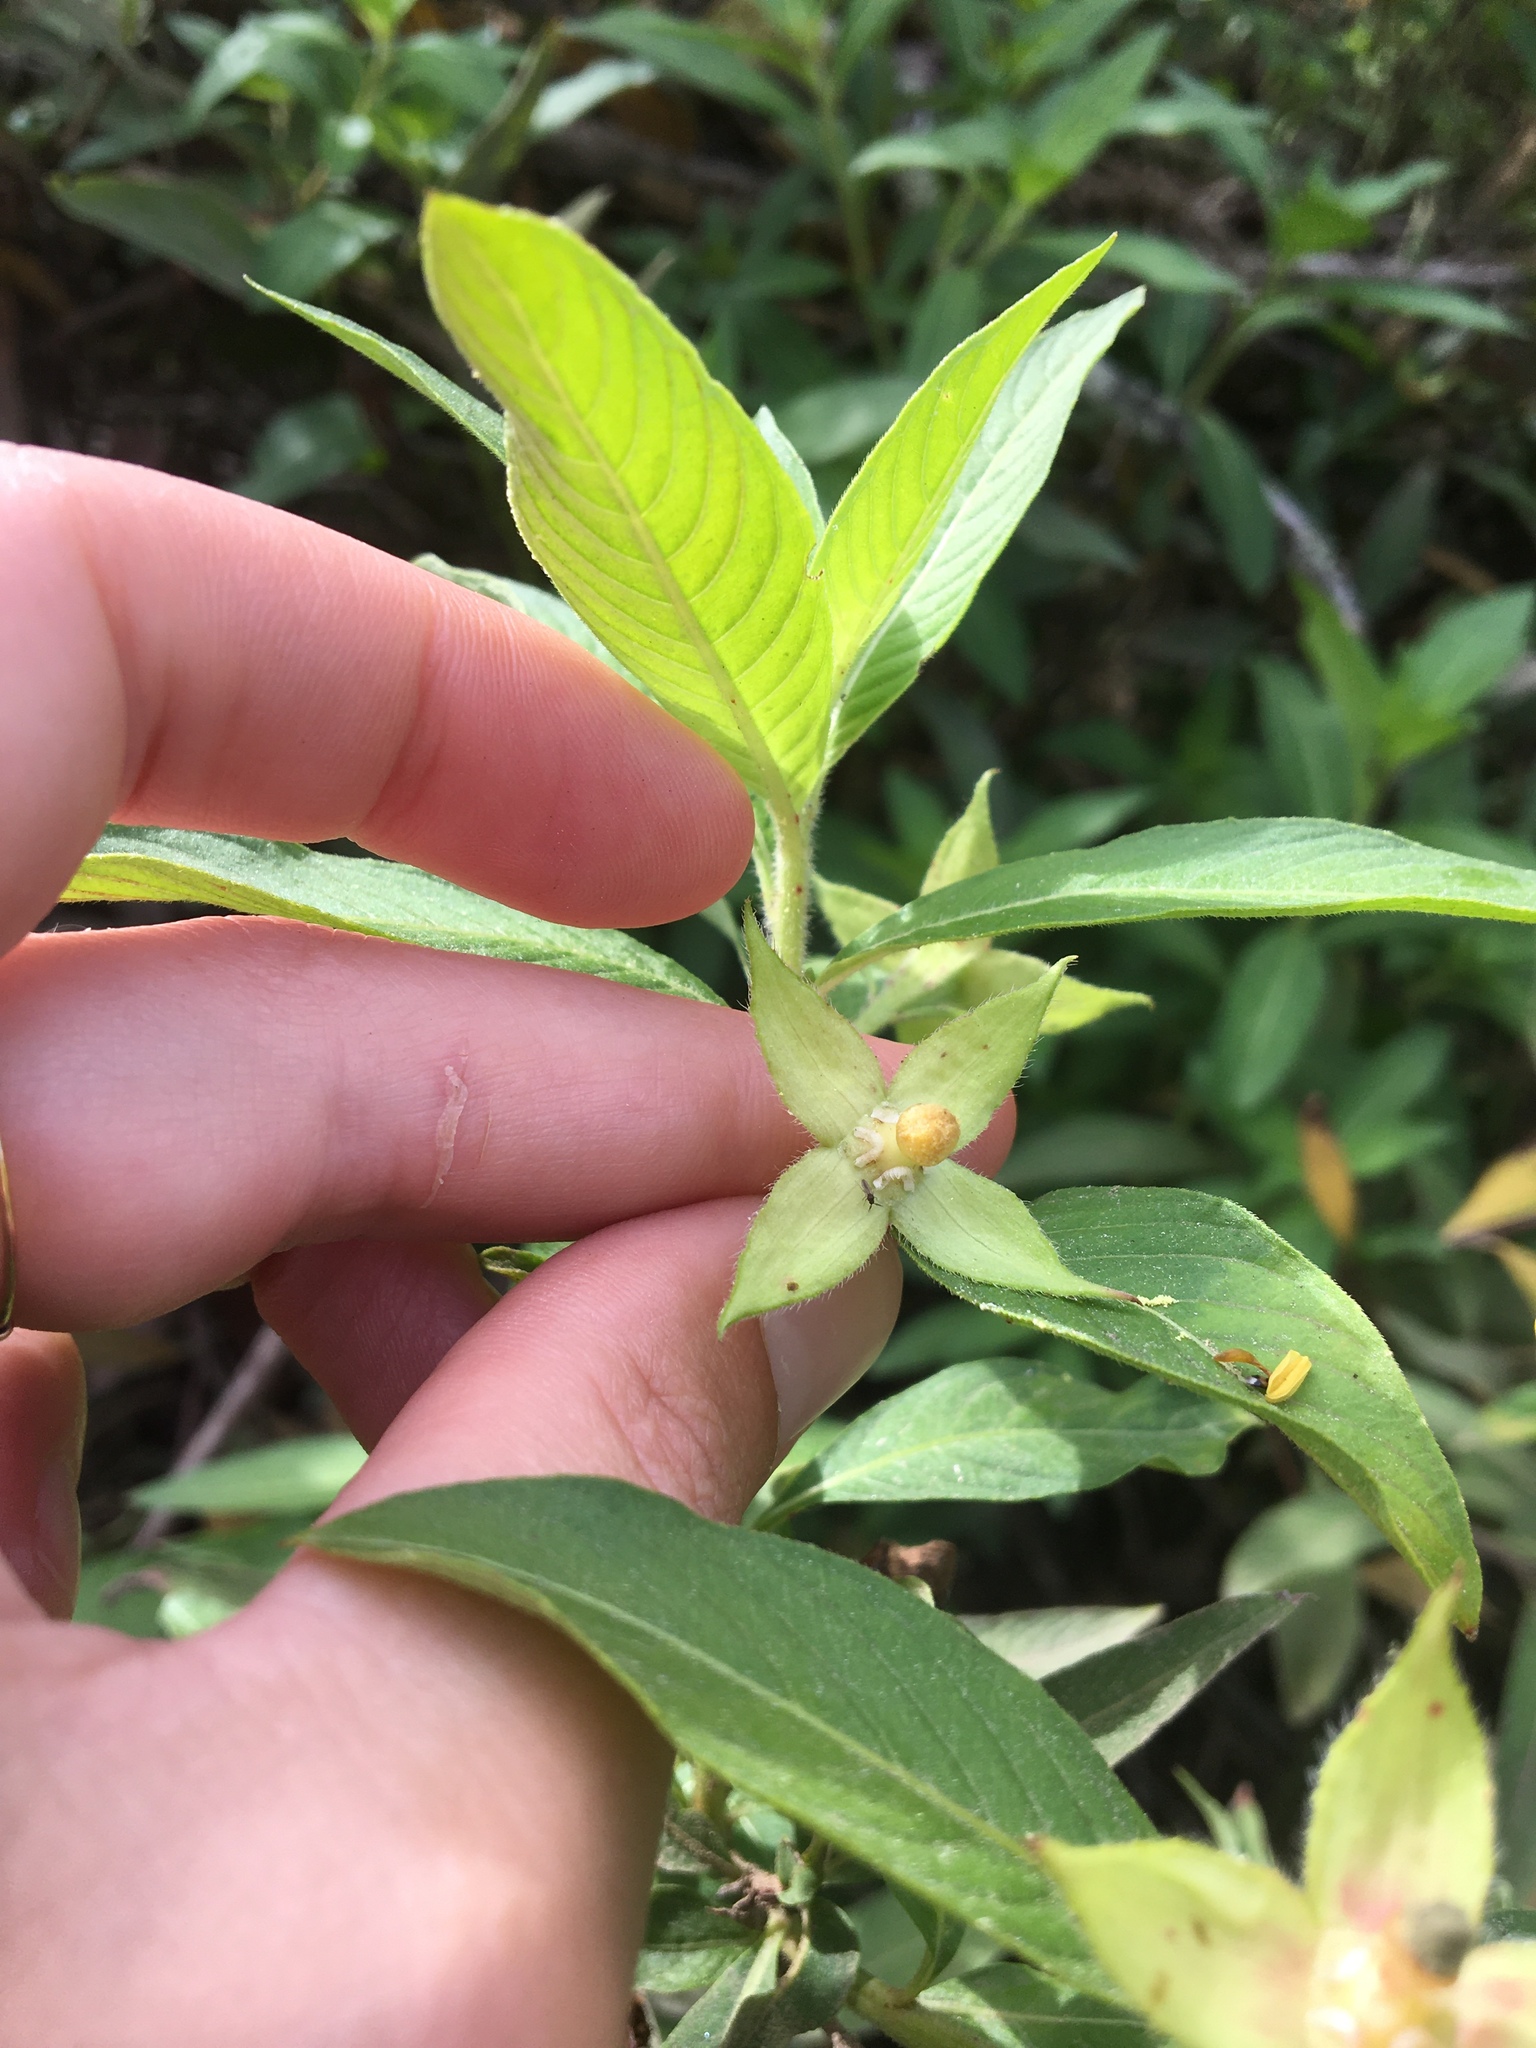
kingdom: Plantae
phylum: Tracheophyta
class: Magnoliopsida
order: Myrtales
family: Onagraceae
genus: Ludwigia
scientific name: Ludwigia peruviana
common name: Peruvian primrose-willow
